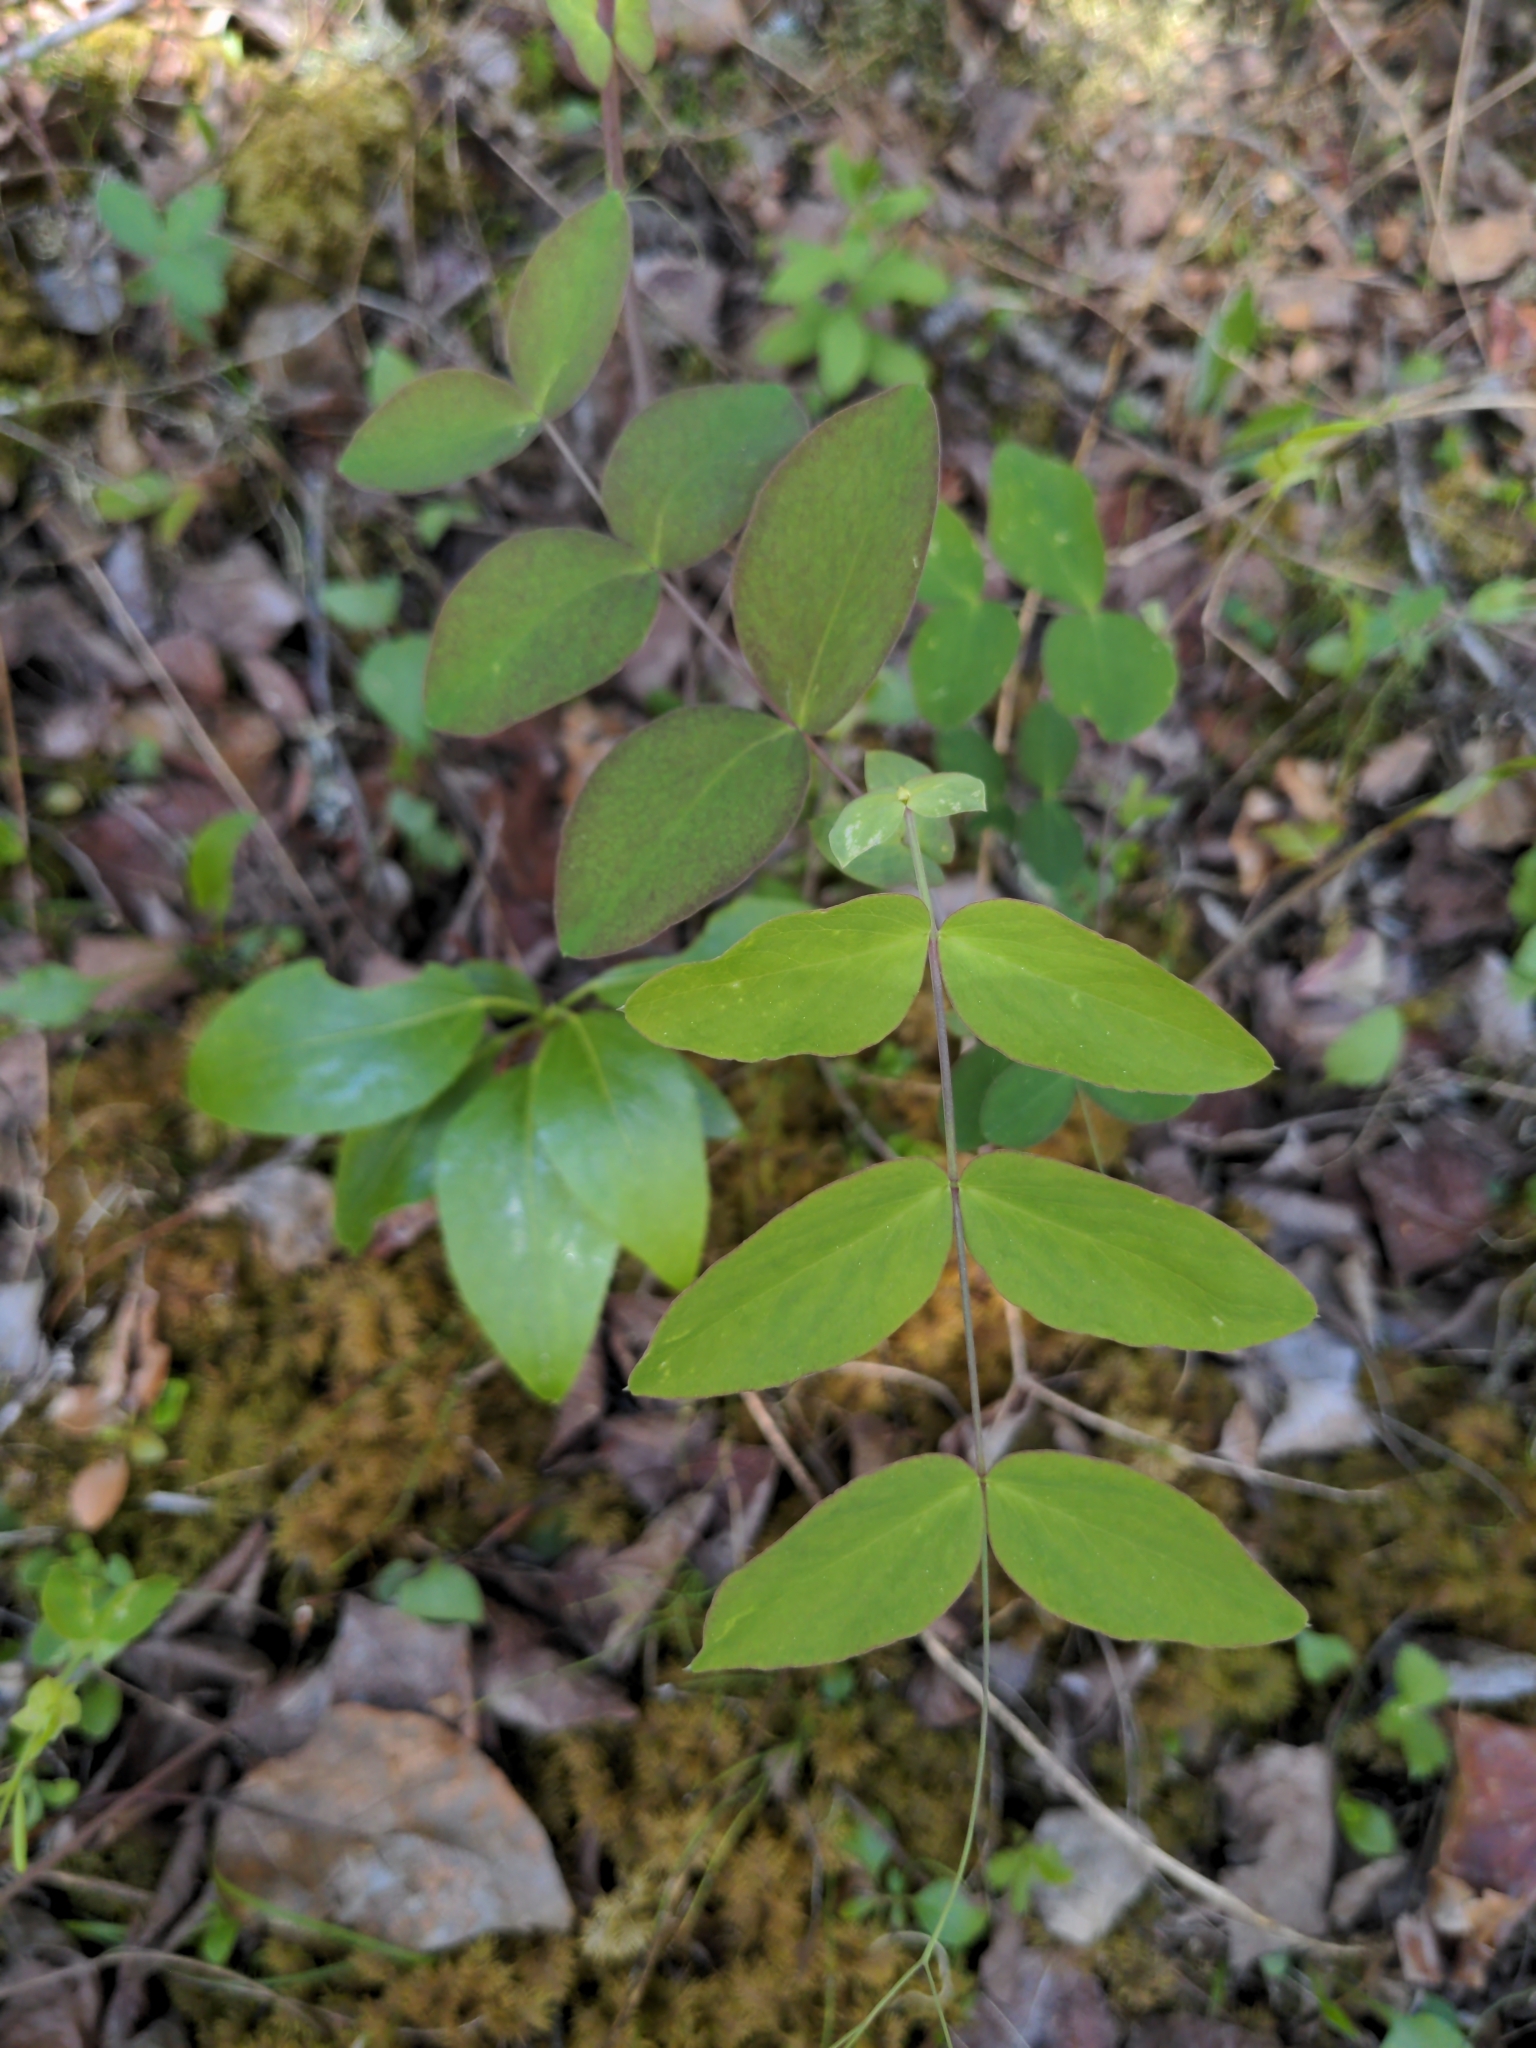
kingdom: Plantae
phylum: Tracheophyta
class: Magnoliopsida
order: Fabales
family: Fabaceae
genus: Lathyrus
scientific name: Lathyrus ochroleucus
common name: Pale vetchling
